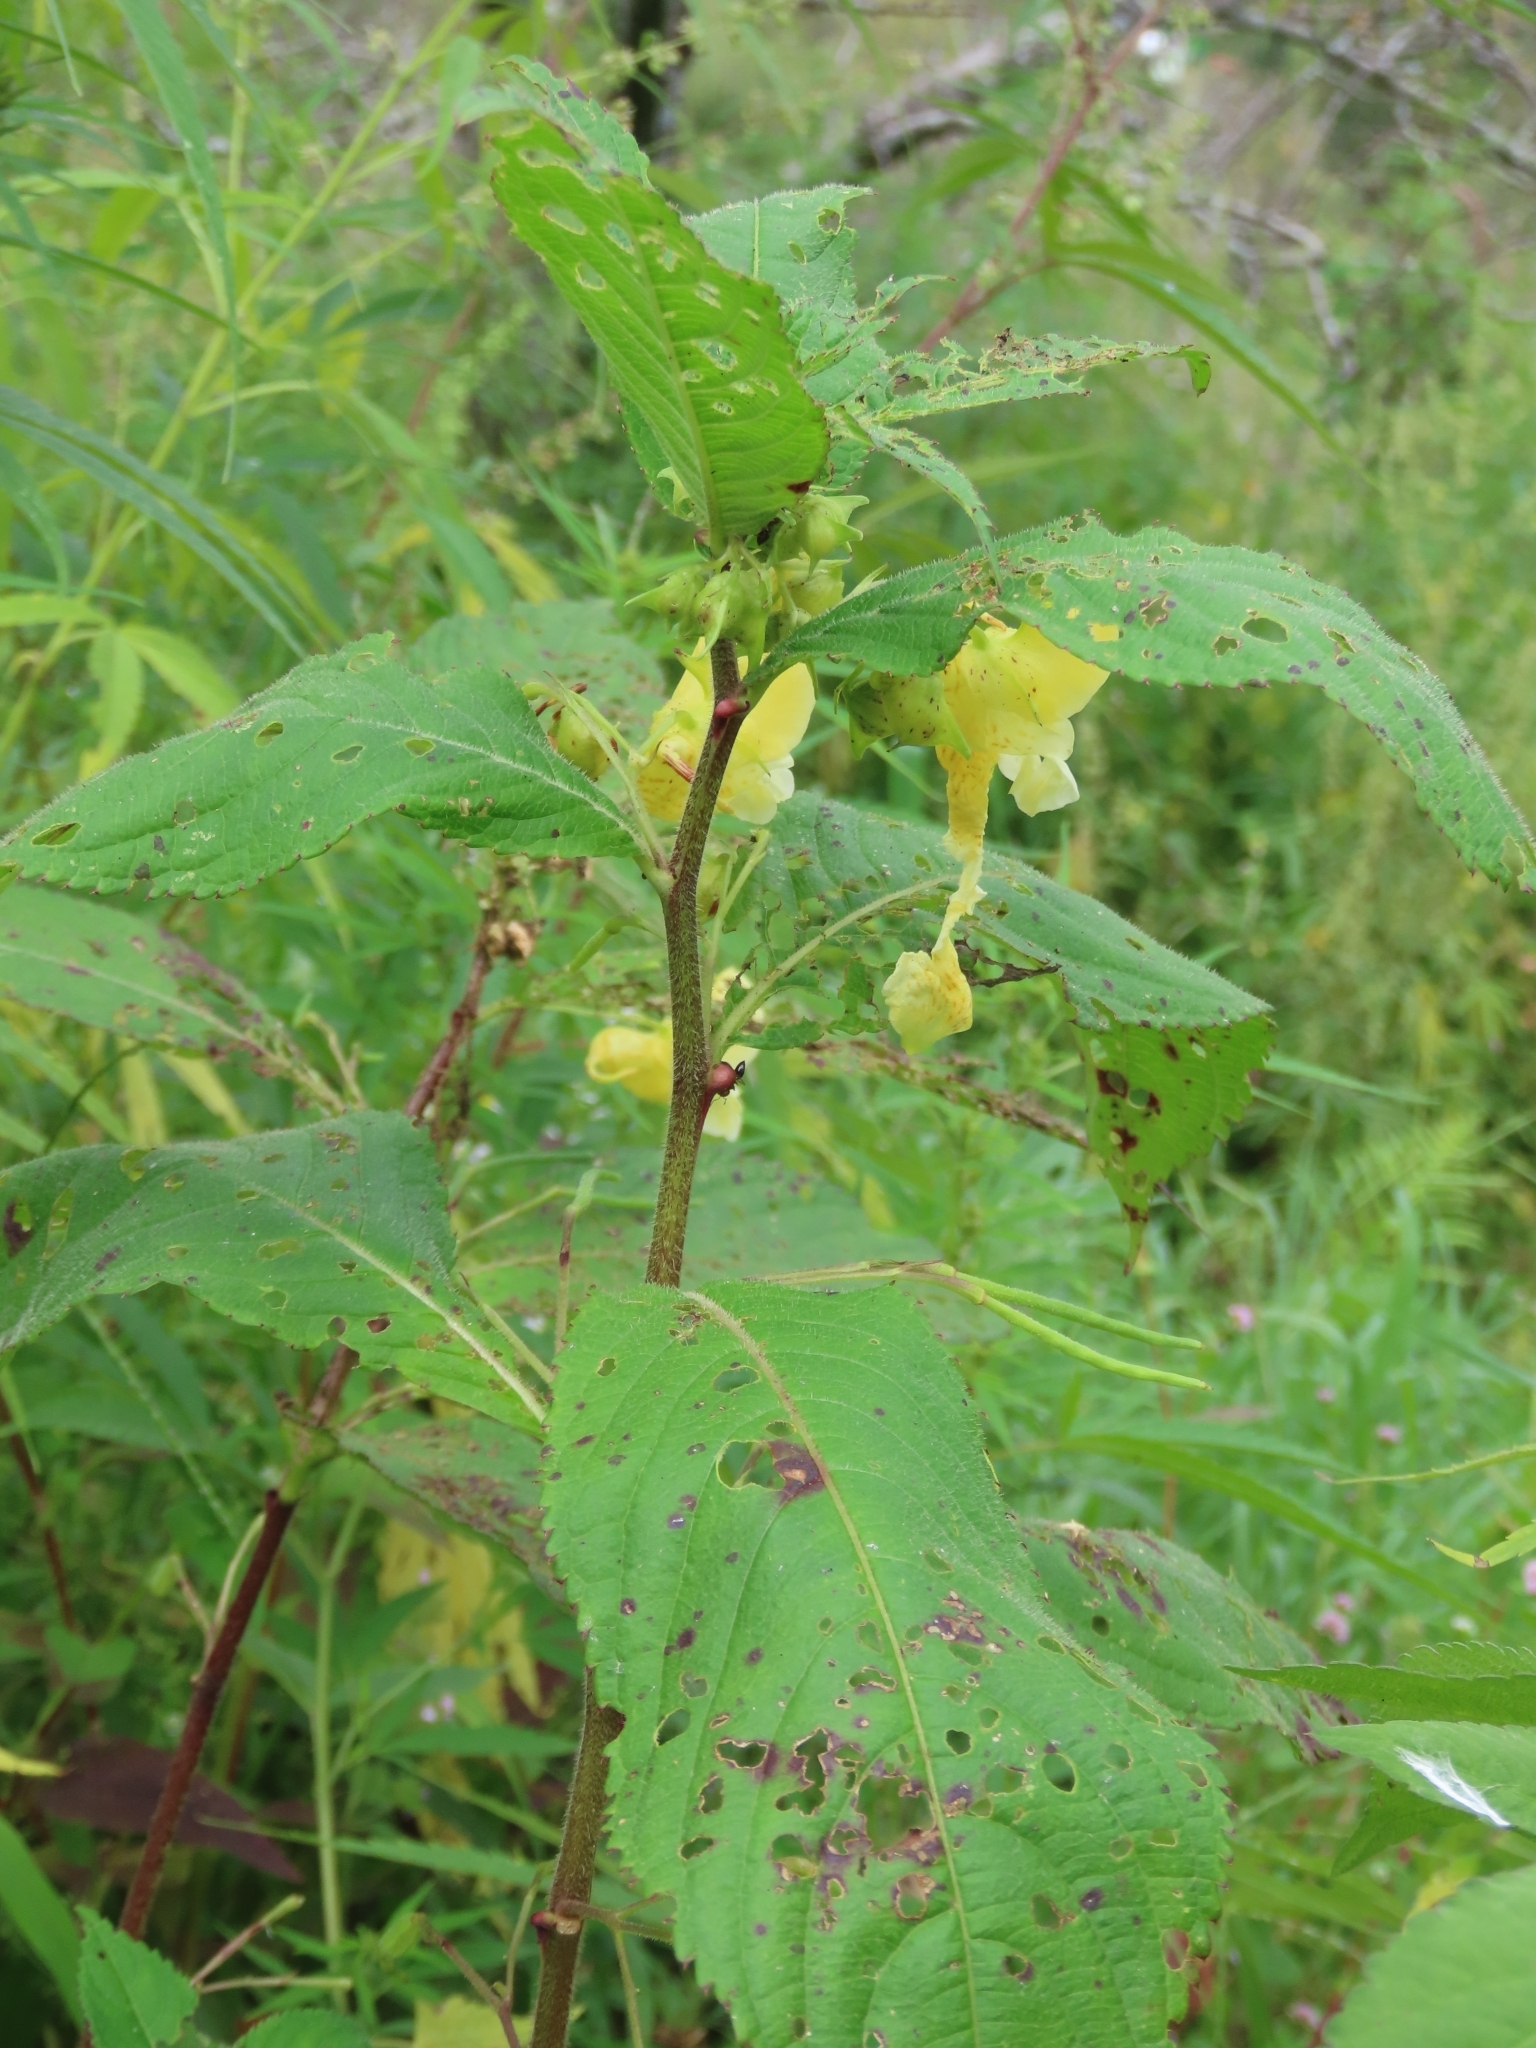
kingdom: Plantae
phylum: Tracheophyta
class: Magnoliopsida
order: Ericales
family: Balsaminaceae
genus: Impatiens
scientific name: Impatiens tricornis
